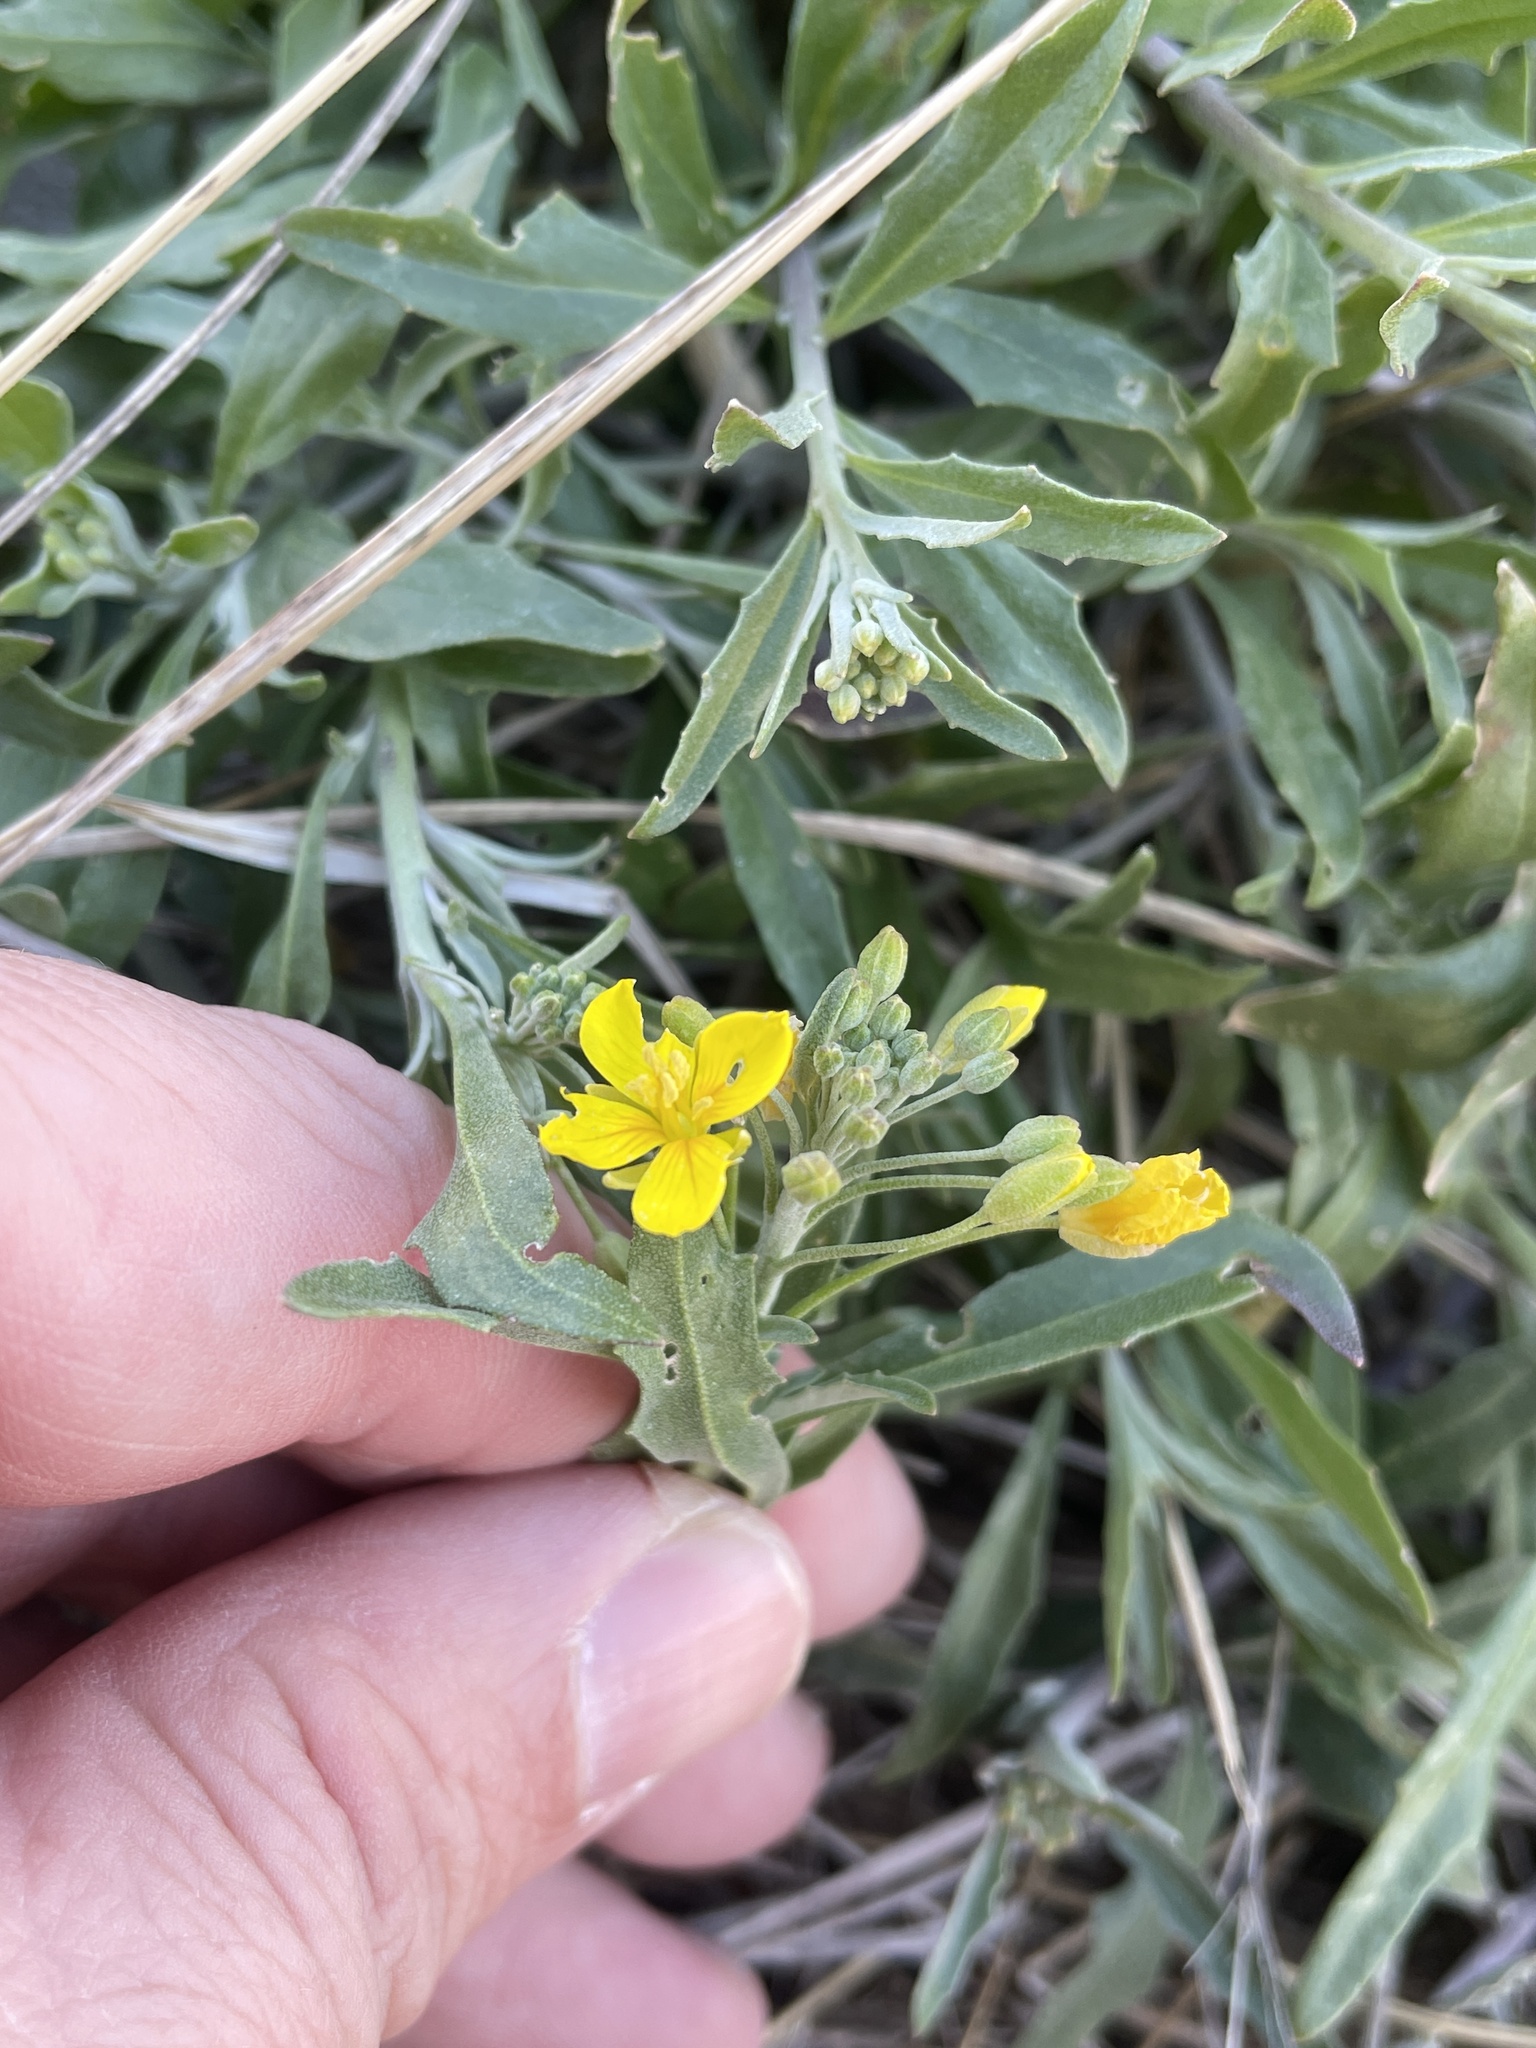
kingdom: Plantae
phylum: Tracheophyta
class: Magnoliopsida
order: Brassicales
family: Brassicaceae
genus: Physaria
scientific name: Physaria gracilis
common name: Spreading bladderpod
